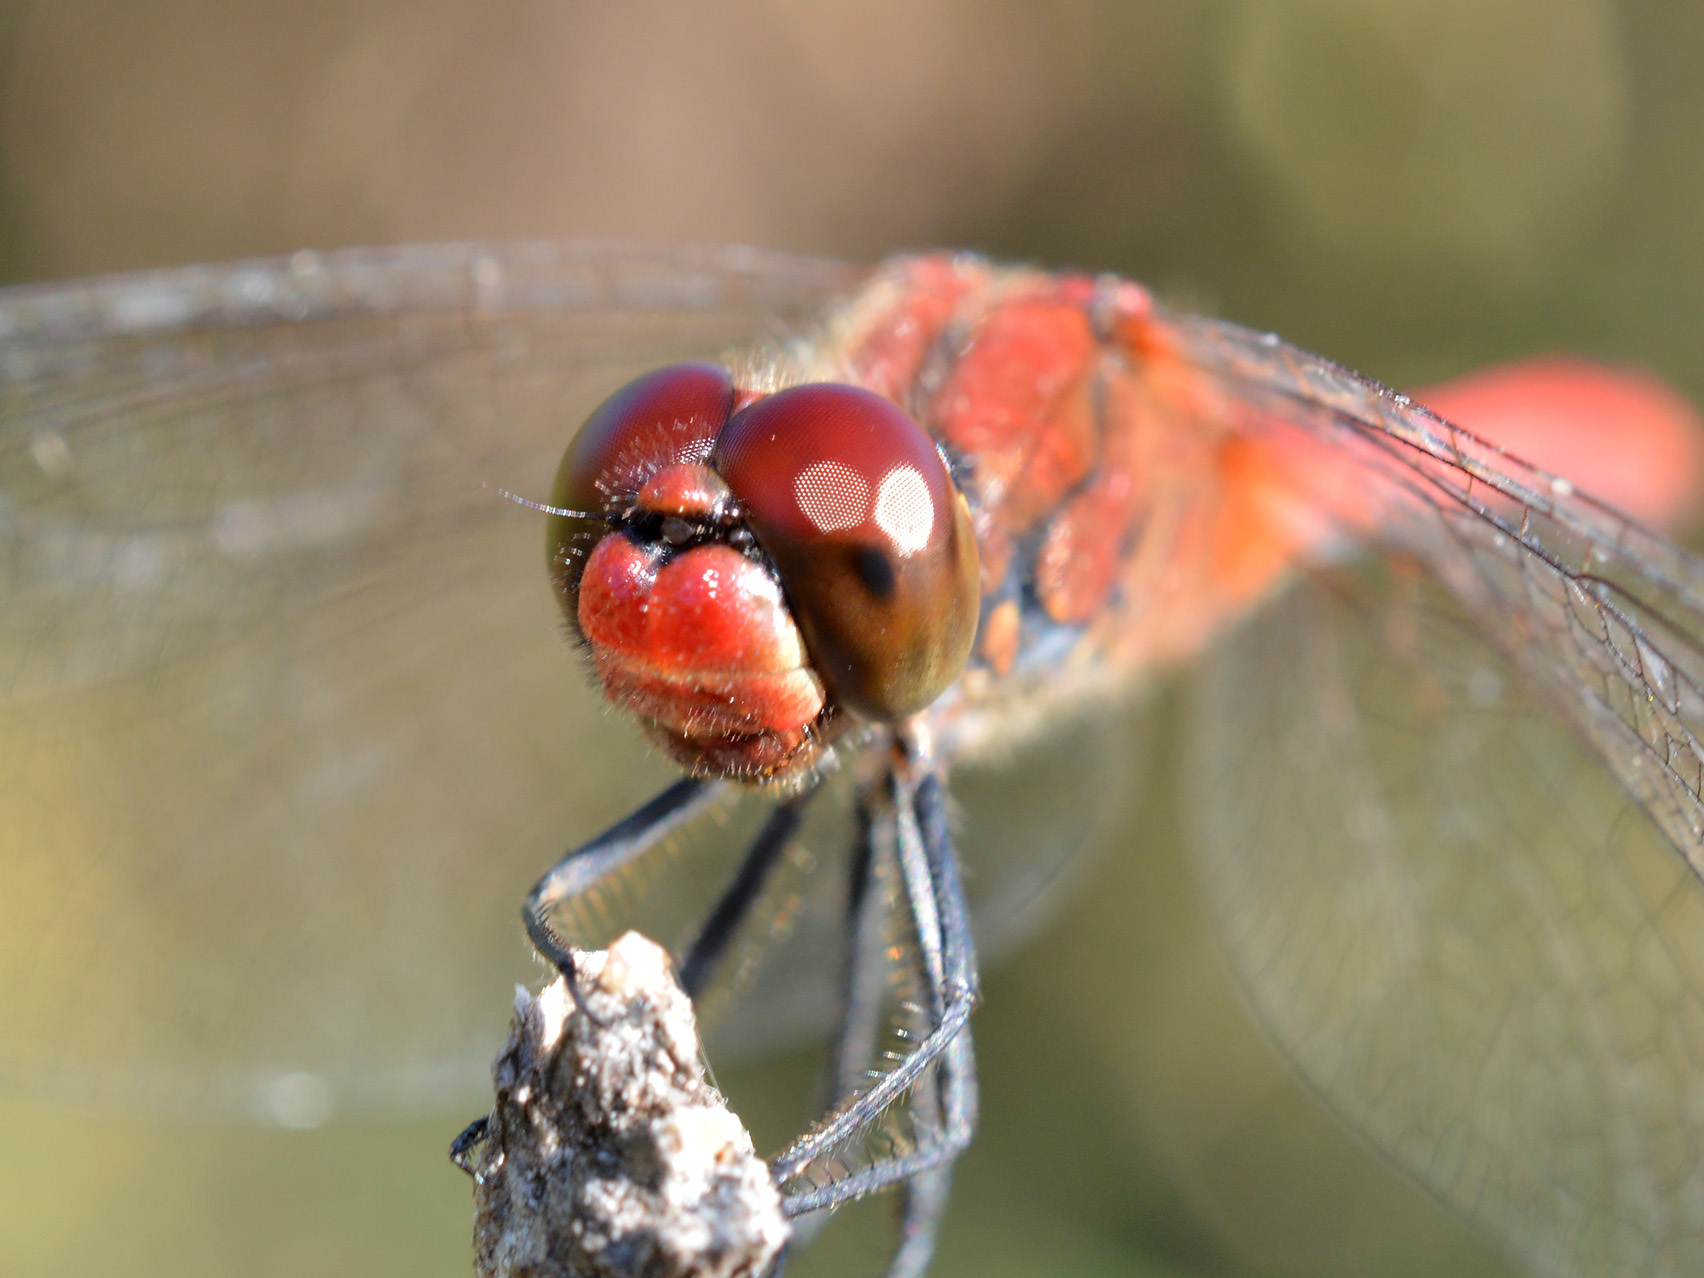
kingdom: Animalia
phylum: Arthropoda
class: Insecta
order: Odonata
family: Libellulidae
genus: Sympetrum
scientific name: Sympetrum sanguineum
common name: Ruddy darter
